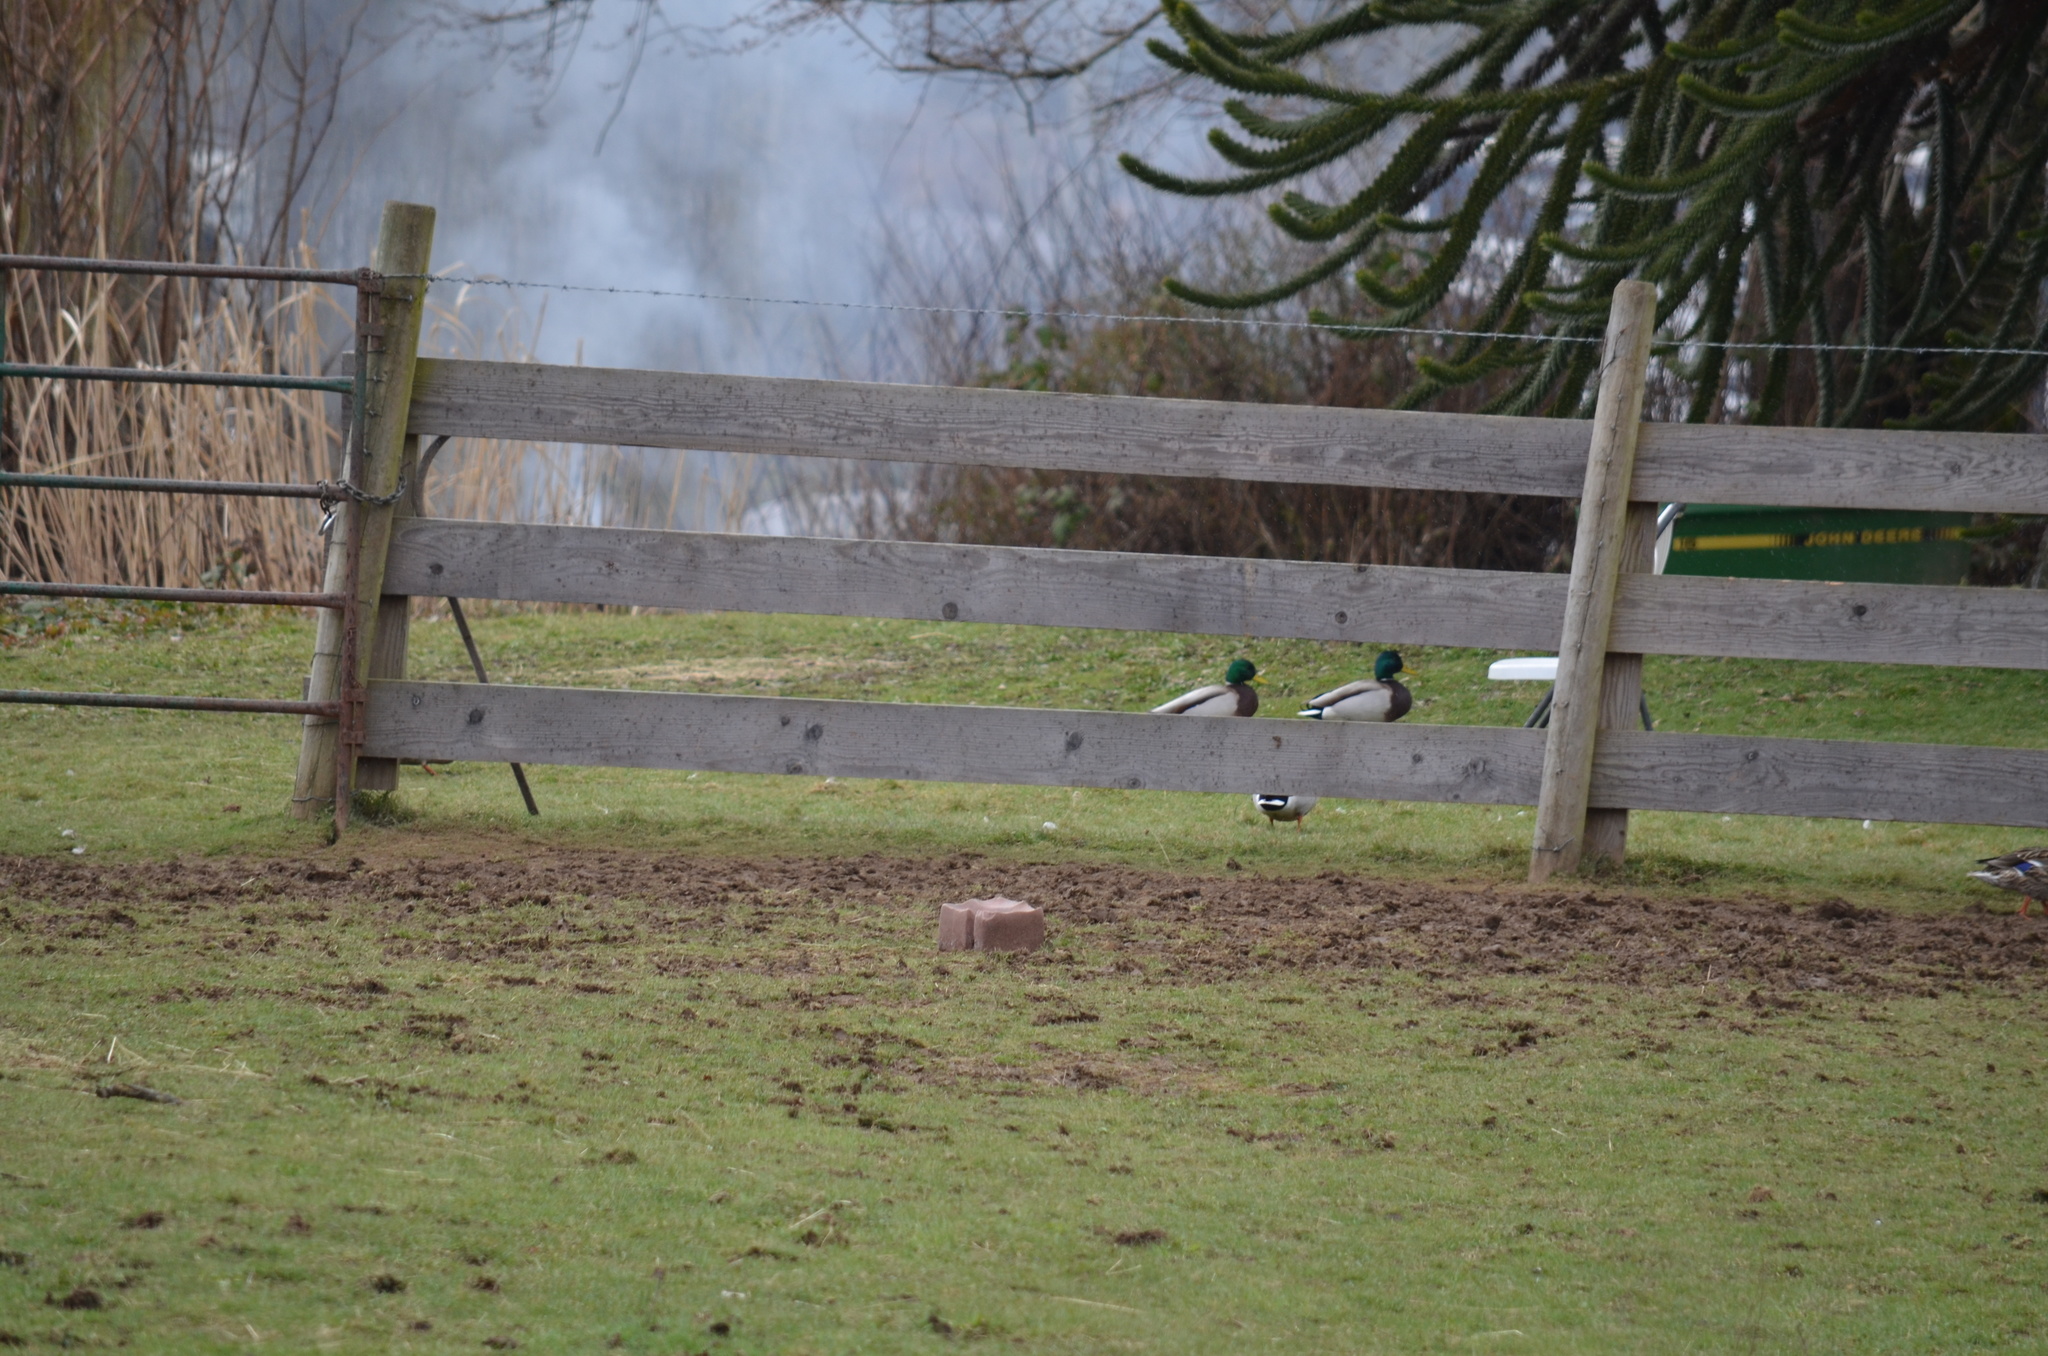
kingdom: Animalia
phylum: Chordata
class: Aves
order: Anseriformes
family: Anatidae
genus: Anas
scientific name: Anas platyrhynchos
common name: Mallard
